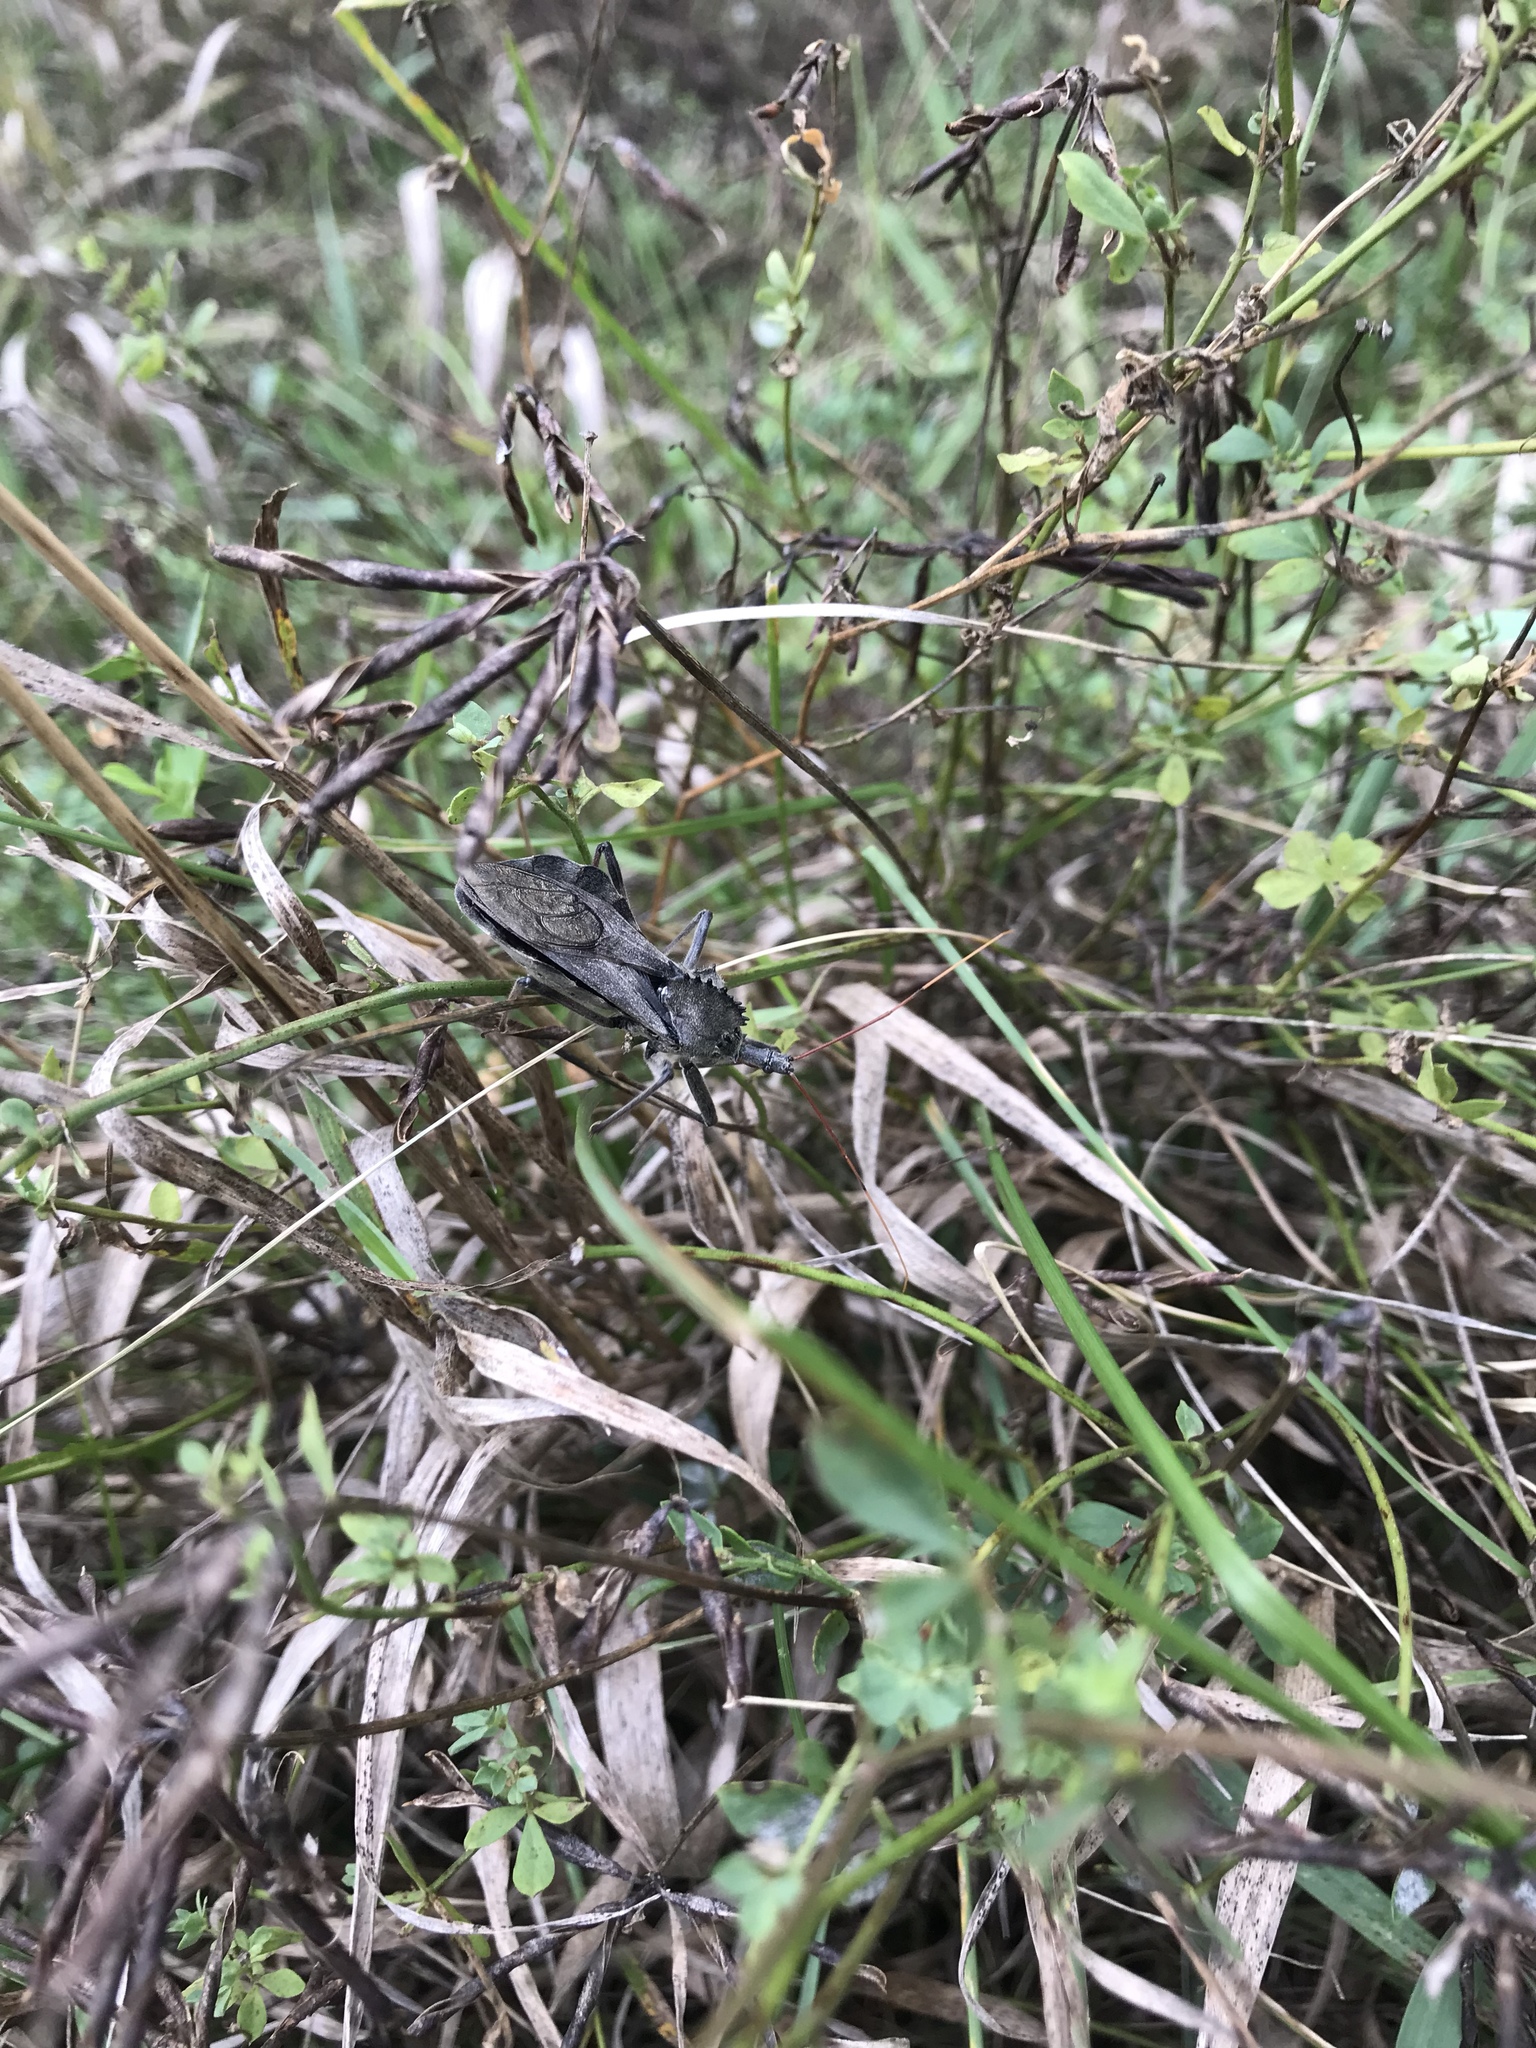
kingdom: Animalia
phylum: Arthropoda
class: Insecta
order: Hemiptera
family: Reduviidae
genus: Arilus
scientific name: Arilus cristatus
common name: North american wheel bug
